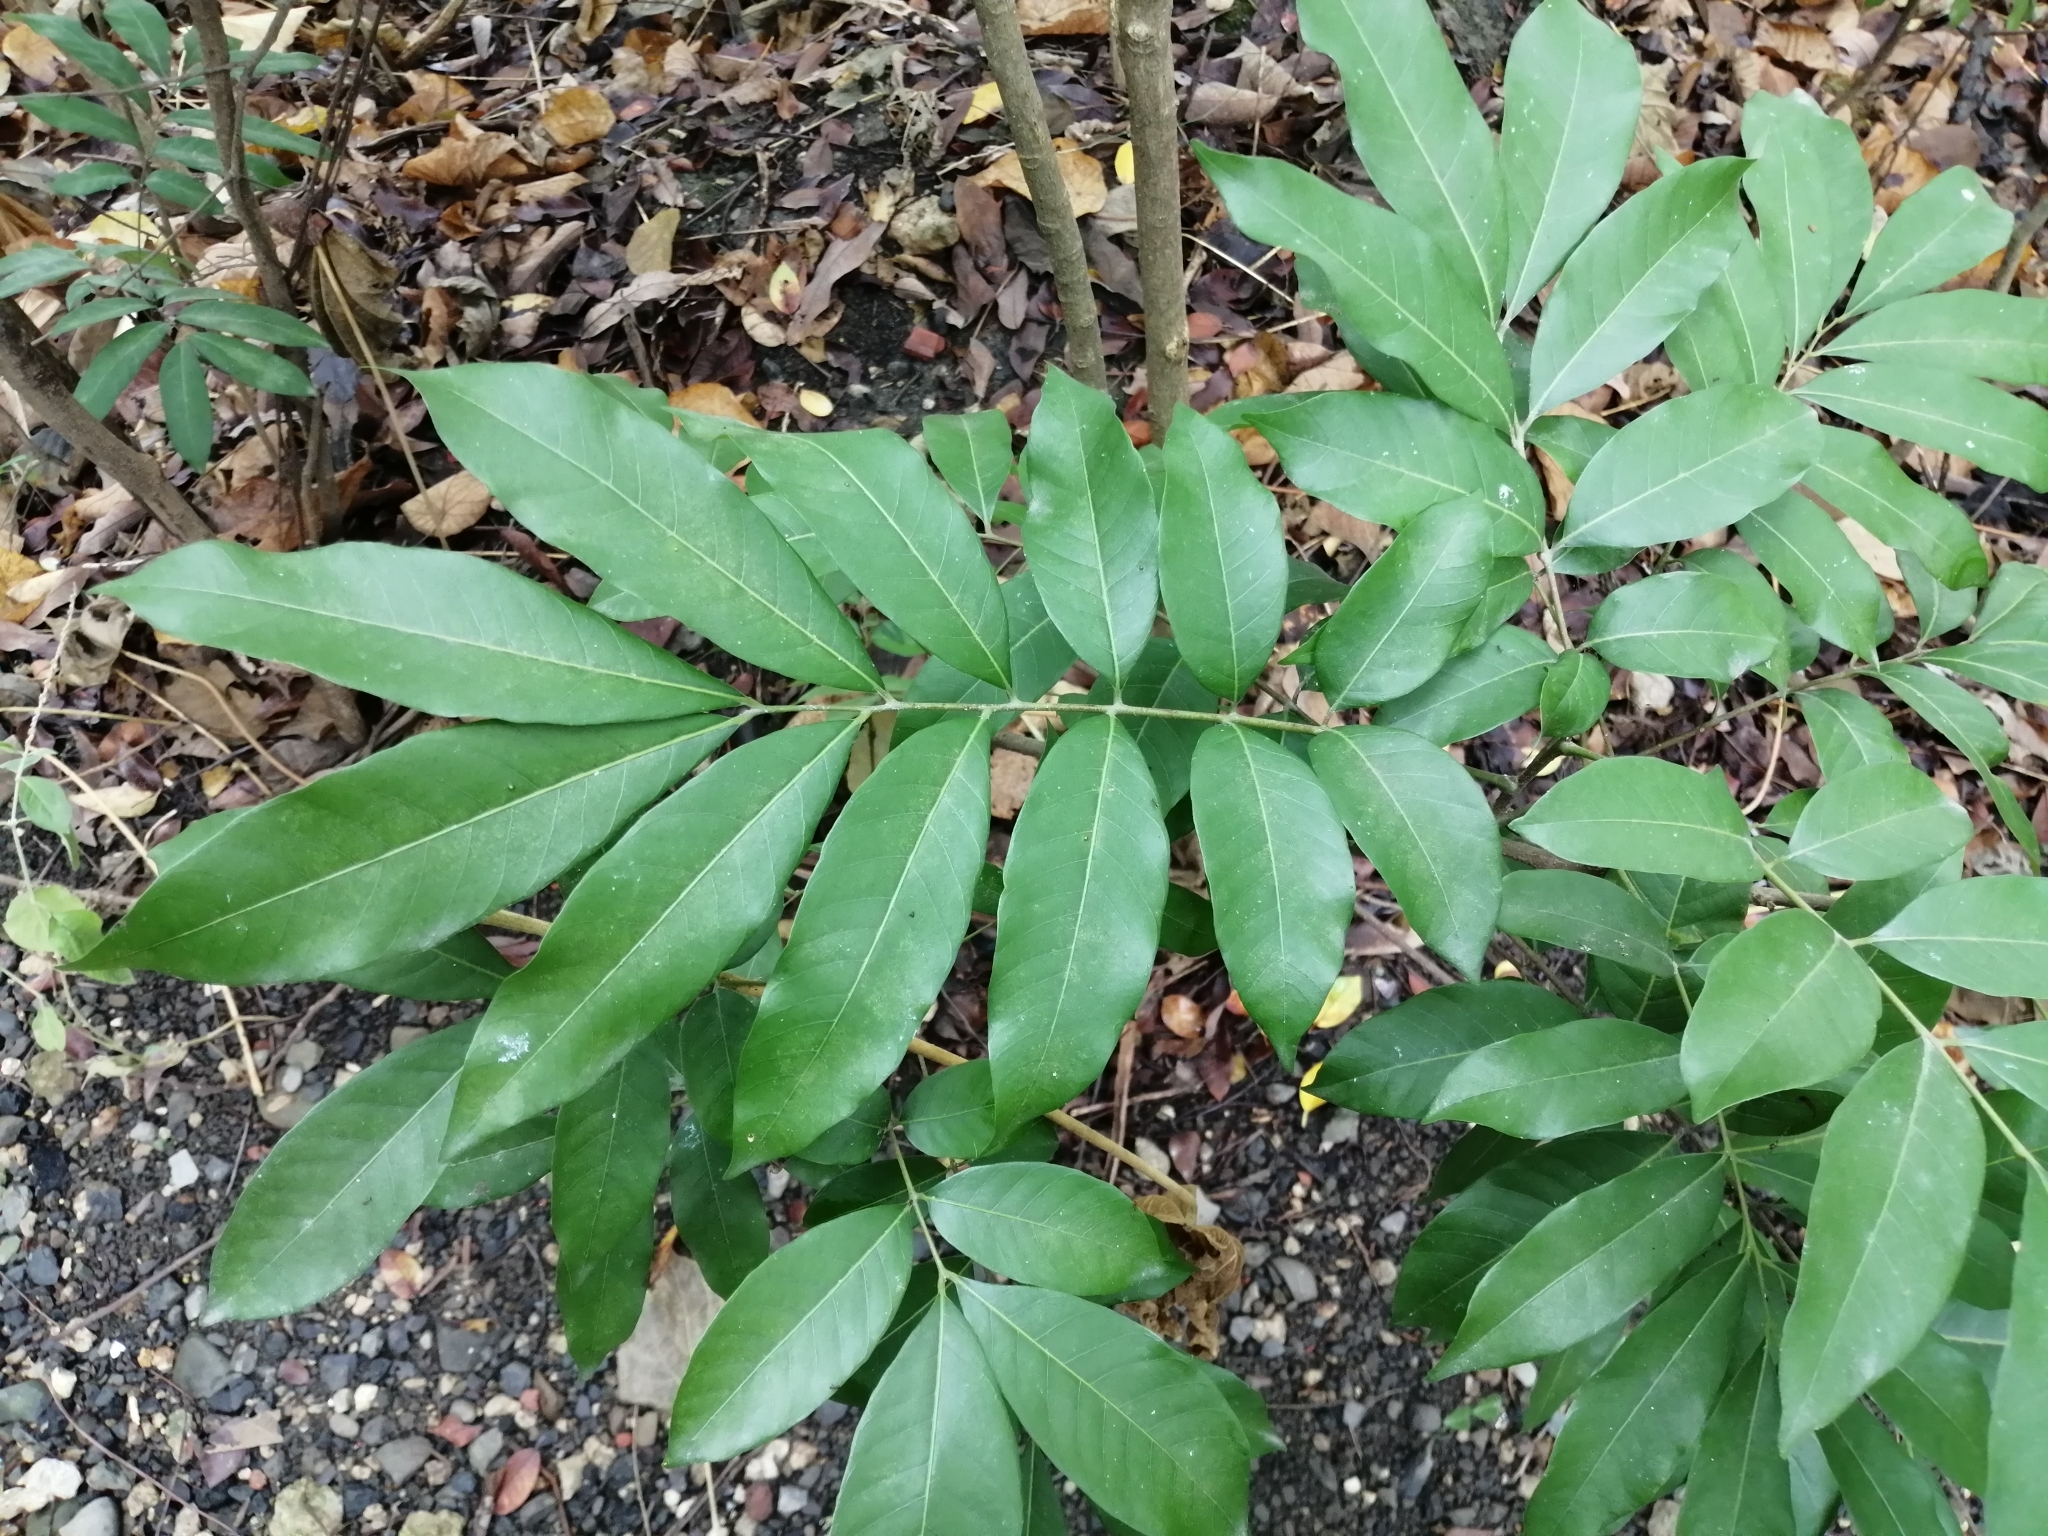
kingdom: Plantae
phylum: Tracheophyta
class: Magnoliopsida
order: Sapindales
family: Sapindaceae
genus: Dimocarpus
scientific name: Dimocarpus longan
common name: Longan
